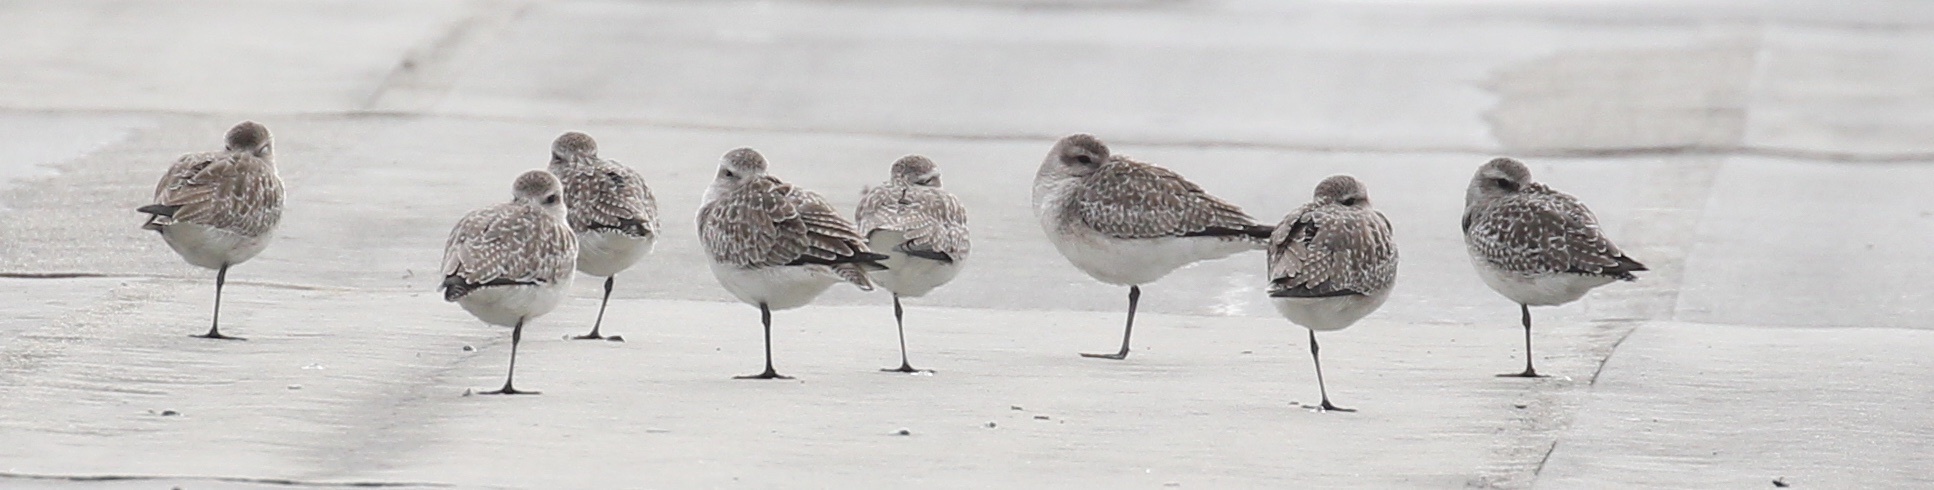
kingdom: Animalia
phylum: Chordata
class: Aves
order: Charadriiformes
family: Charadriidae
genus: Pluvialis
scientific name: Pluvialis squatarola
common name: Grey plover
